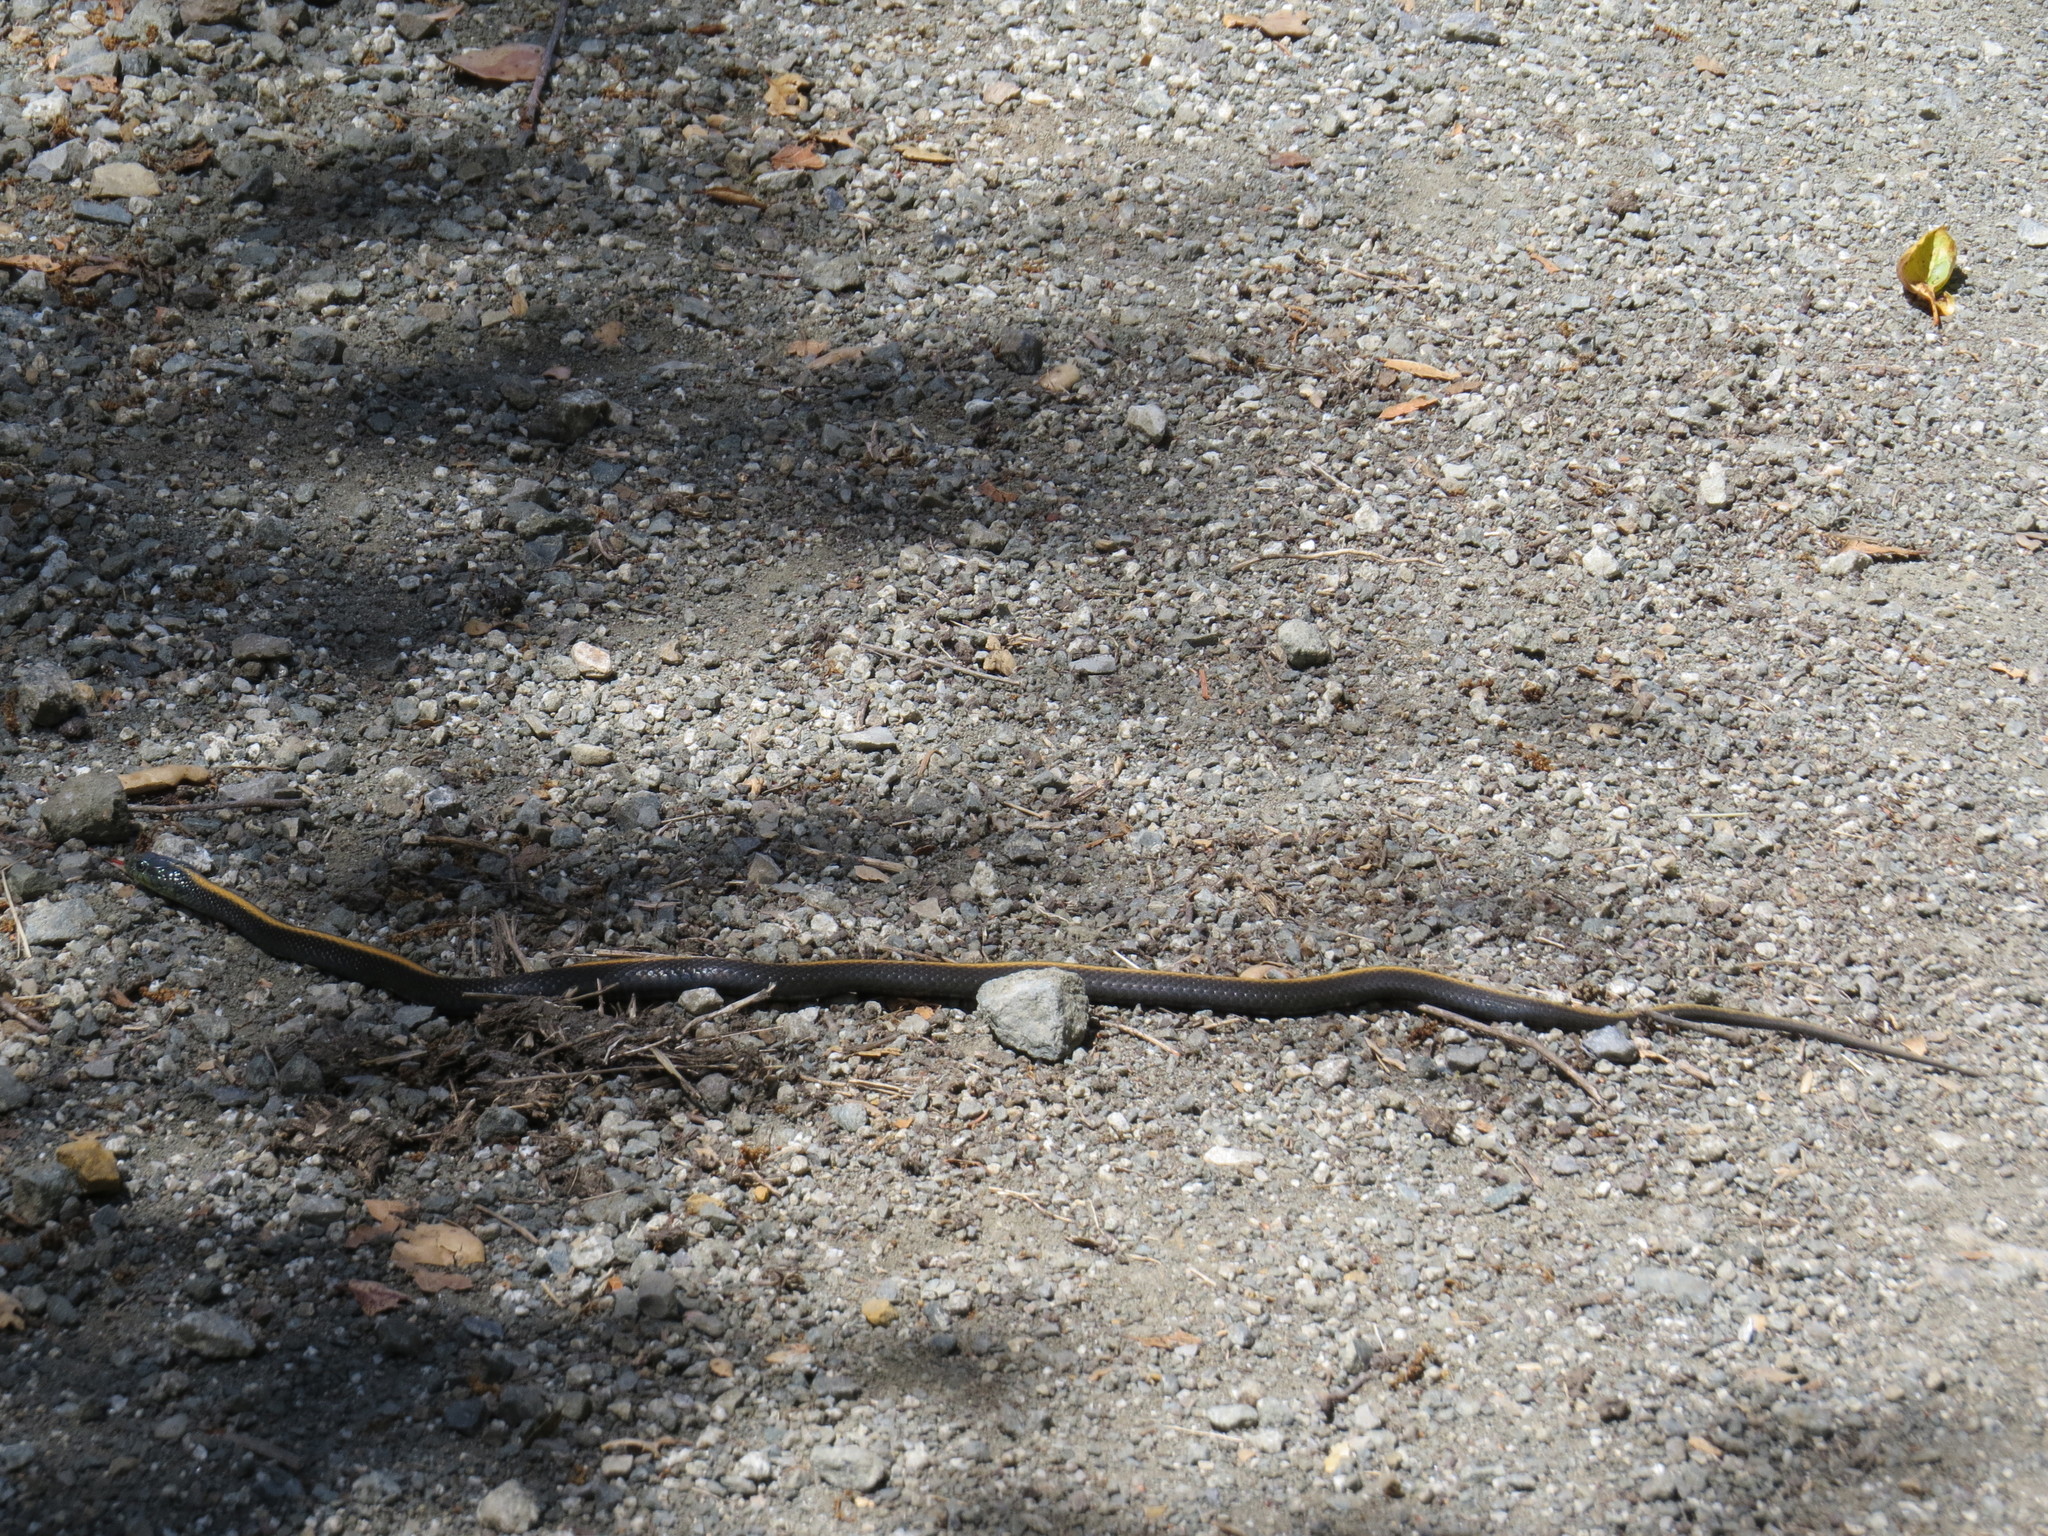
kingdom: Animalia
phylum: Chordata
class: Squamata
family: Colubridae
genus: Thamnophis
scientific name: Thamnophis atratus
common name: Pacific coast aquatic garter snake
